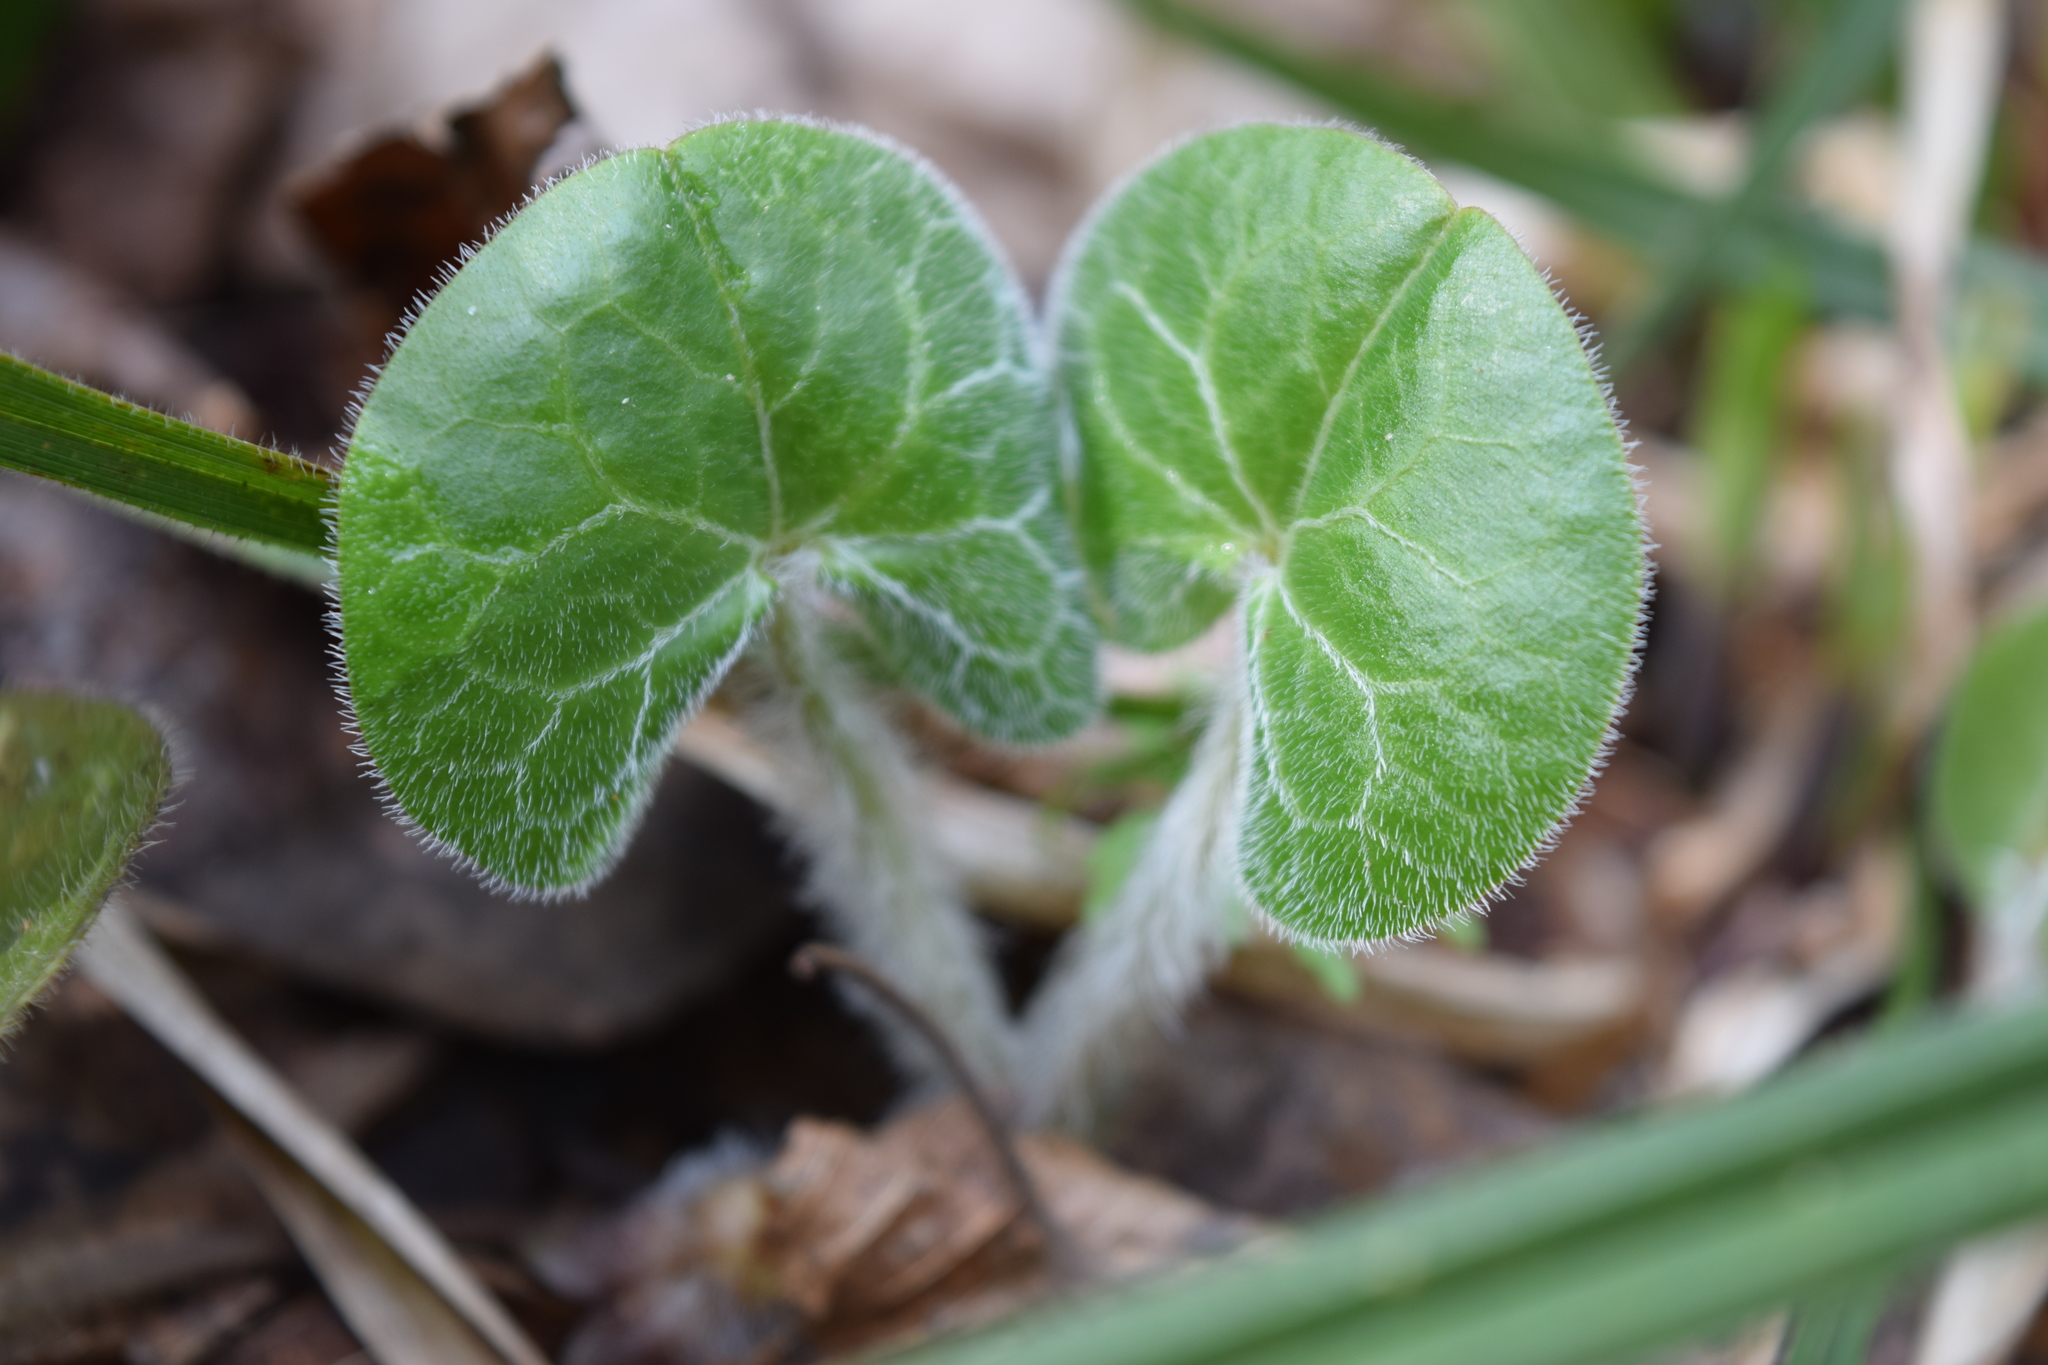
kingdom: Plantae
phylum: Tracheophyta
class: Magnoliopsida
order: Piperales
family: Aristolochiaceae
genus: Asarum
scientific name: Asarum europaeum
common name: Asarabacca
